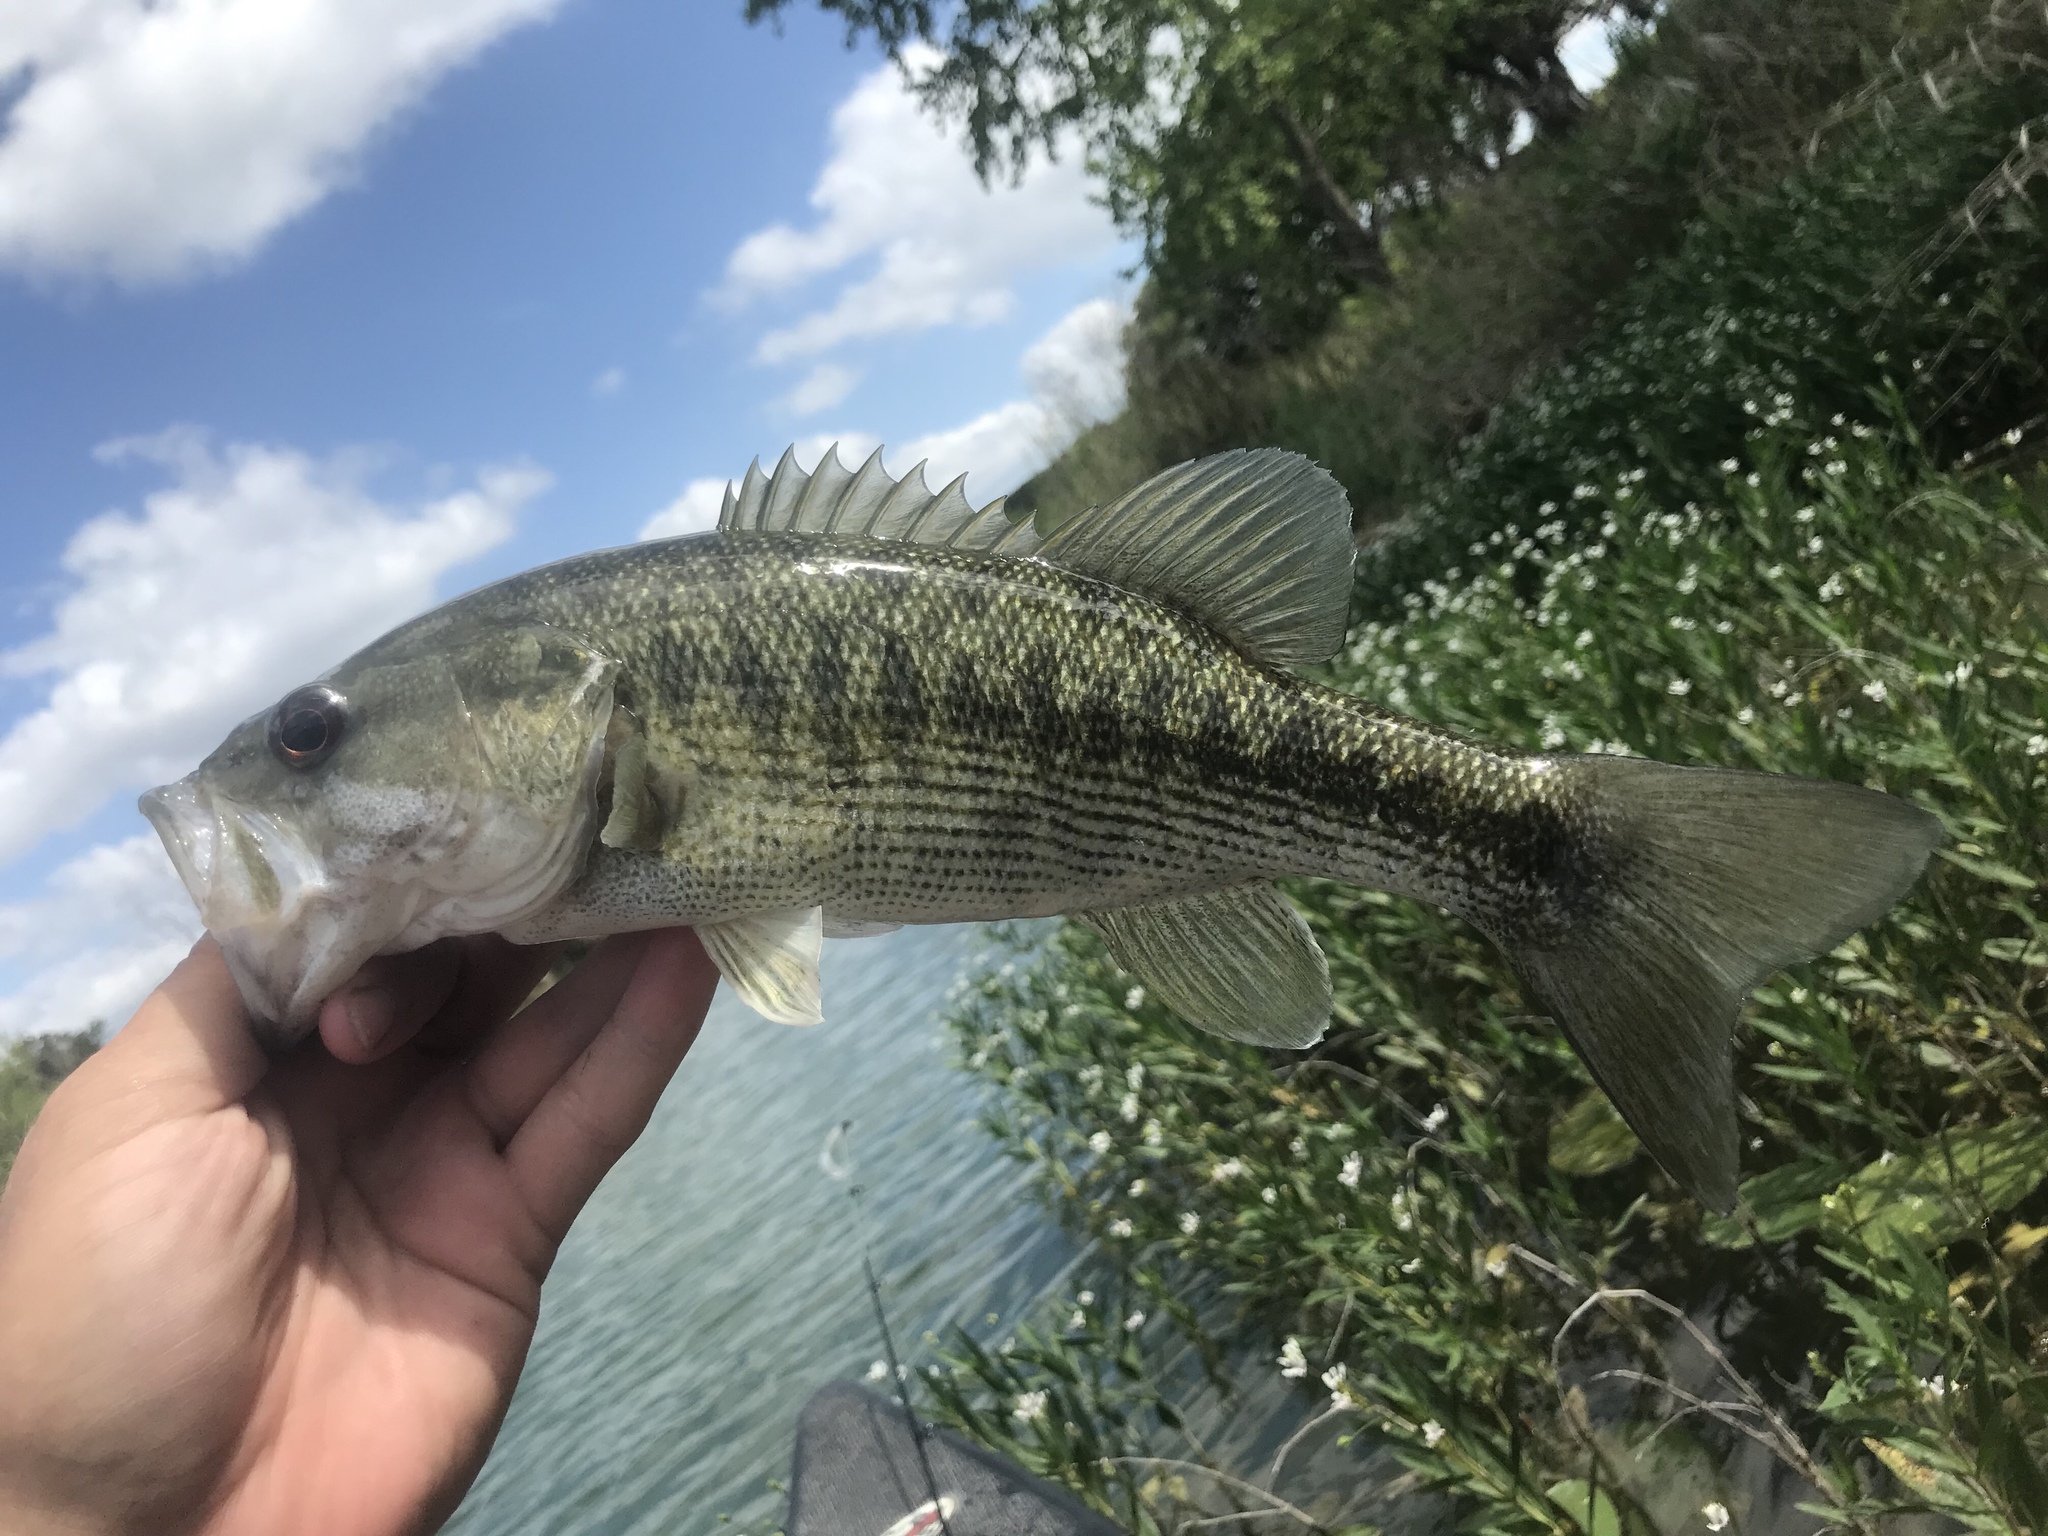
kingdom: Animalia
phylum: Chordata
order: Perciformes
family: Centrarchidae
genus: Micropterus
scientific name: Micropterus treculii
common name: Guadalupe bass
